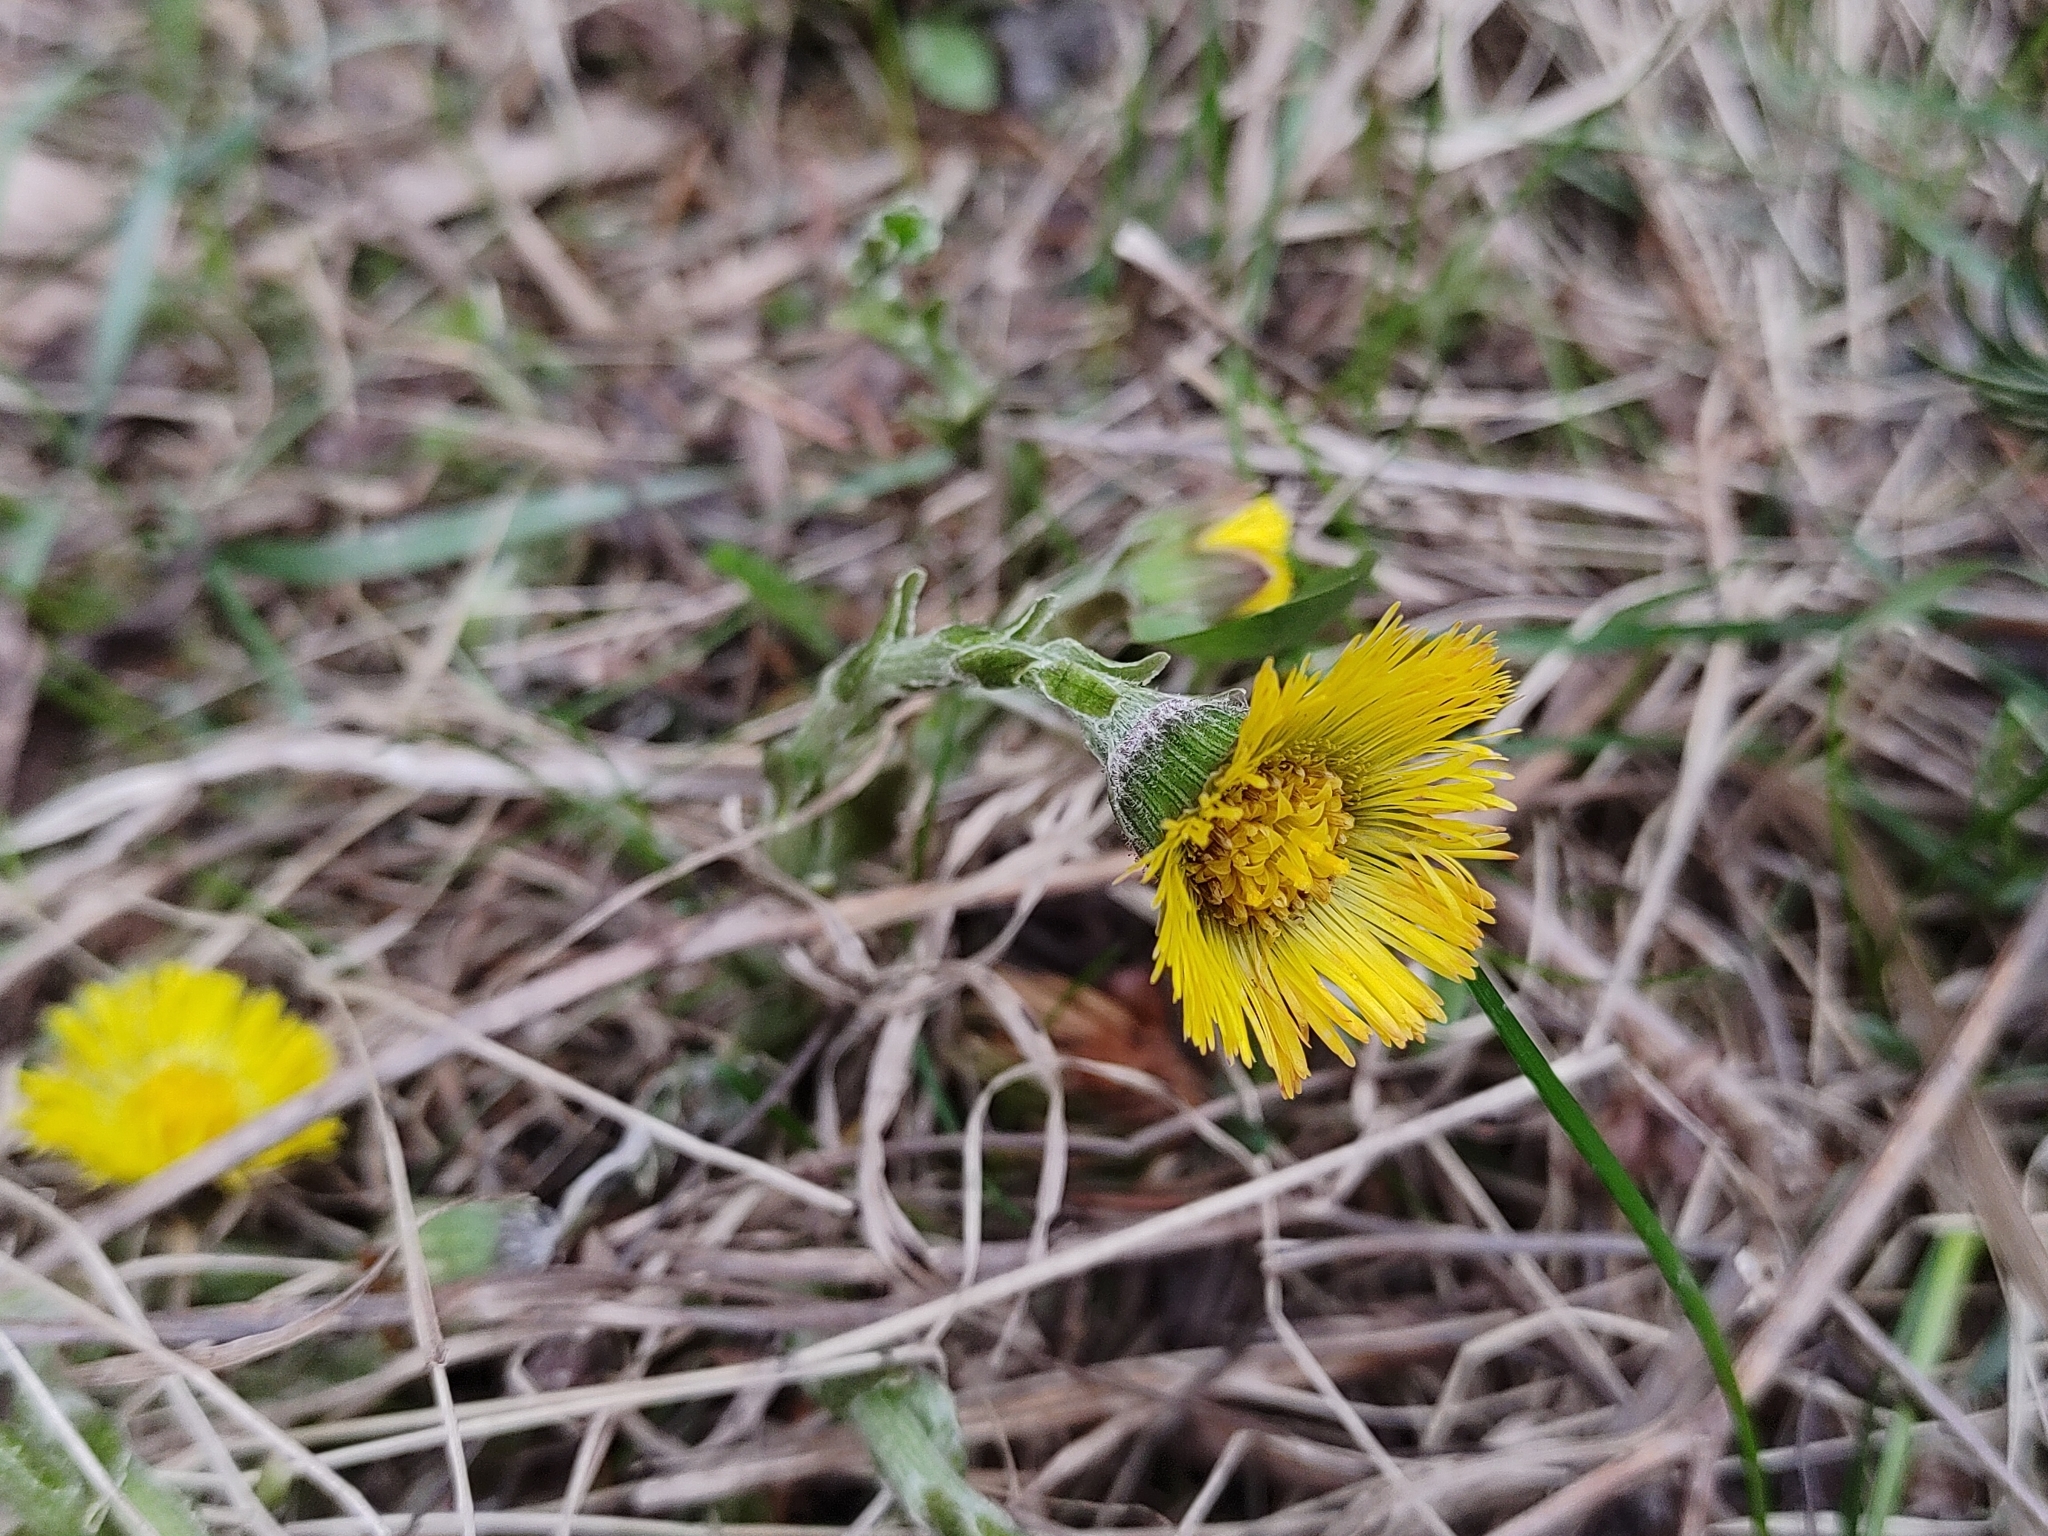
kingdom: Plantae
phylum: Tracheophyta
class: Magnoliopsida
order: Asterales
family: Asteraceae
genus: Tussilago
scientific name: Tussilago farfara
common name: Coltsfoot
